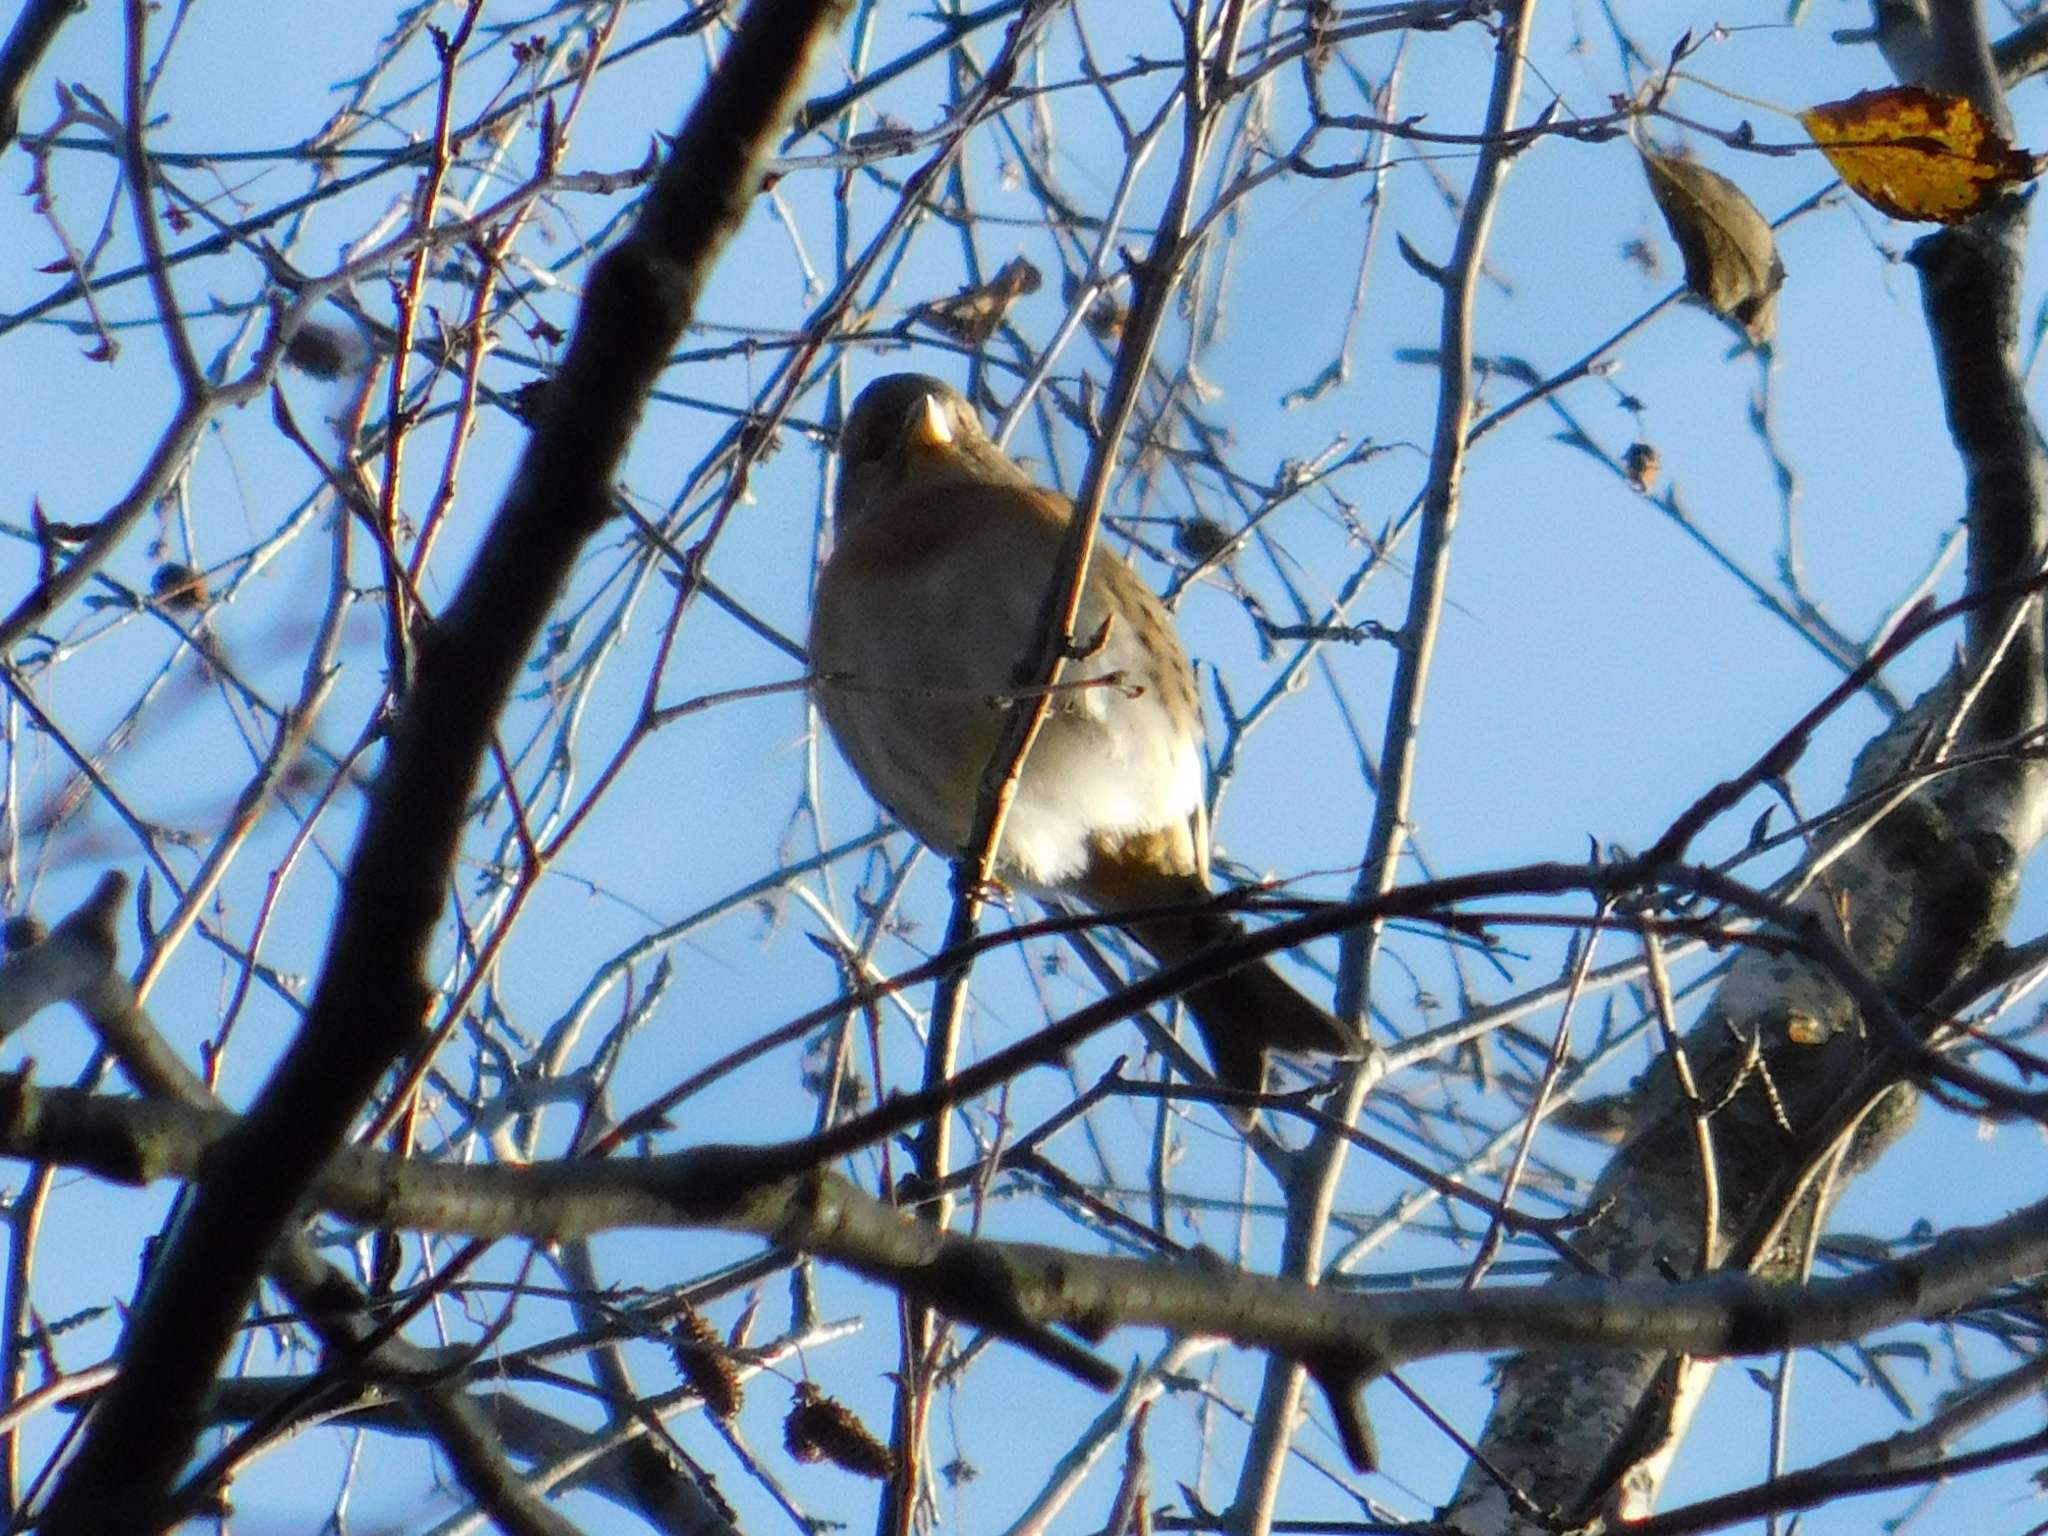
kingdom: Animalia
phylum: Chordata
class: Aves
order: Passeriformes
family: Fringillidae
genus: Fringilla
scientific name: Fringilla montifringilla
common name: Brambling
